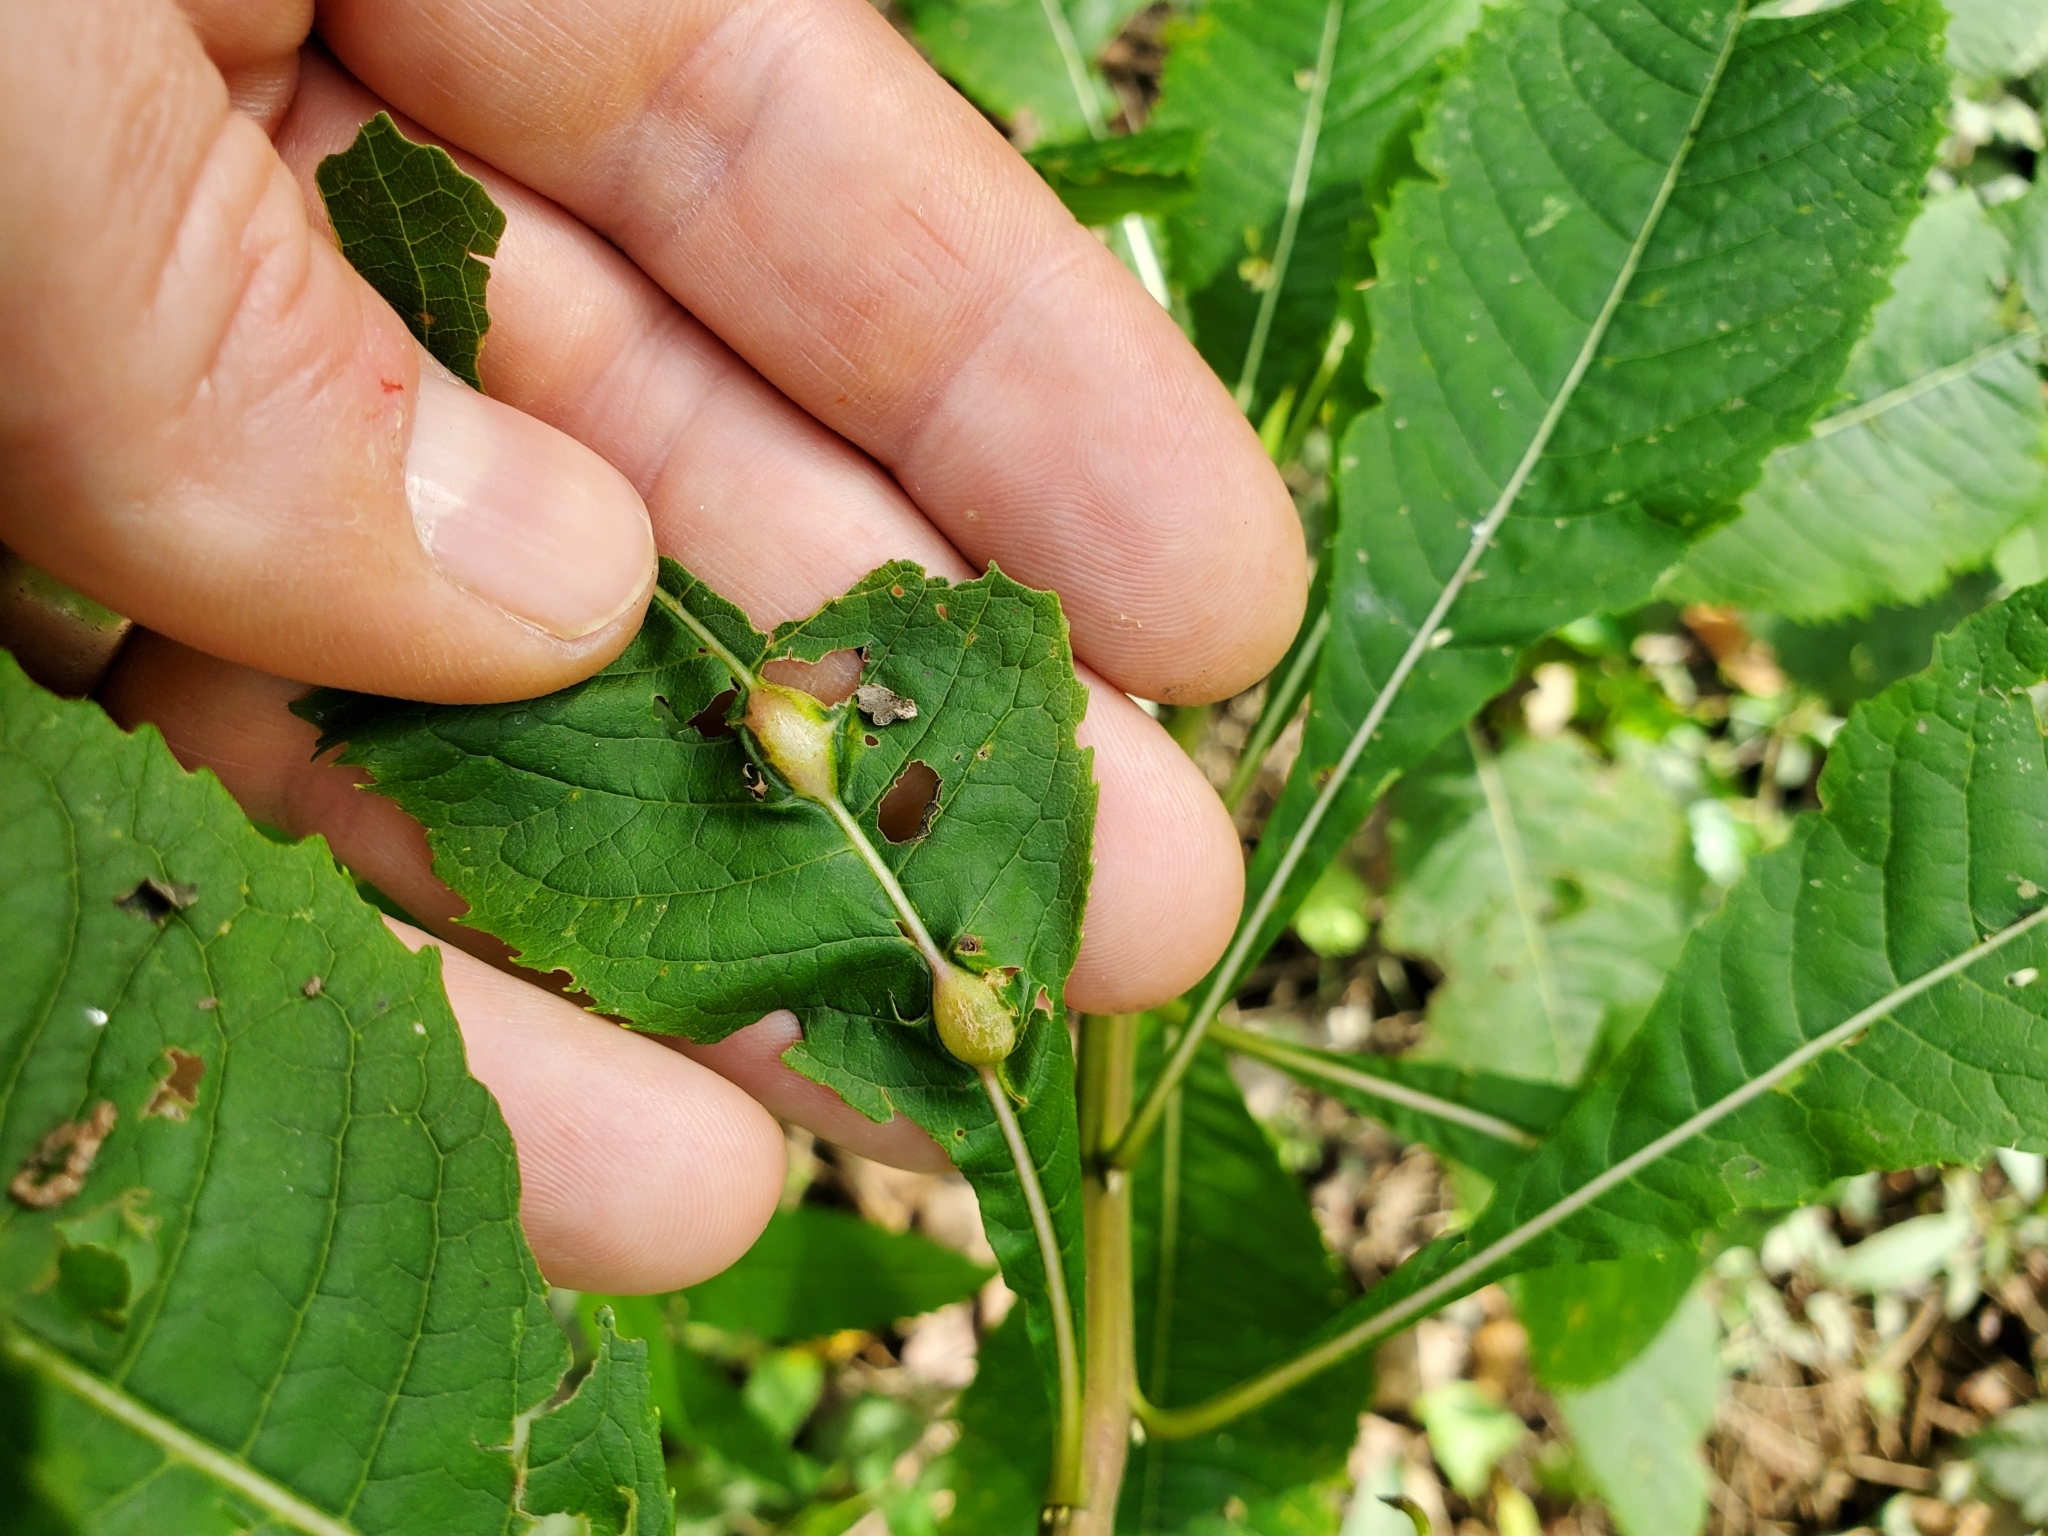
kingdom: Animalia
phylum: Arthropoda
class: Insecta
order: Diptera
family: Cecidomyiidae
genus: Neolasioptera
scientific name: Neolasioptera vernoniae
